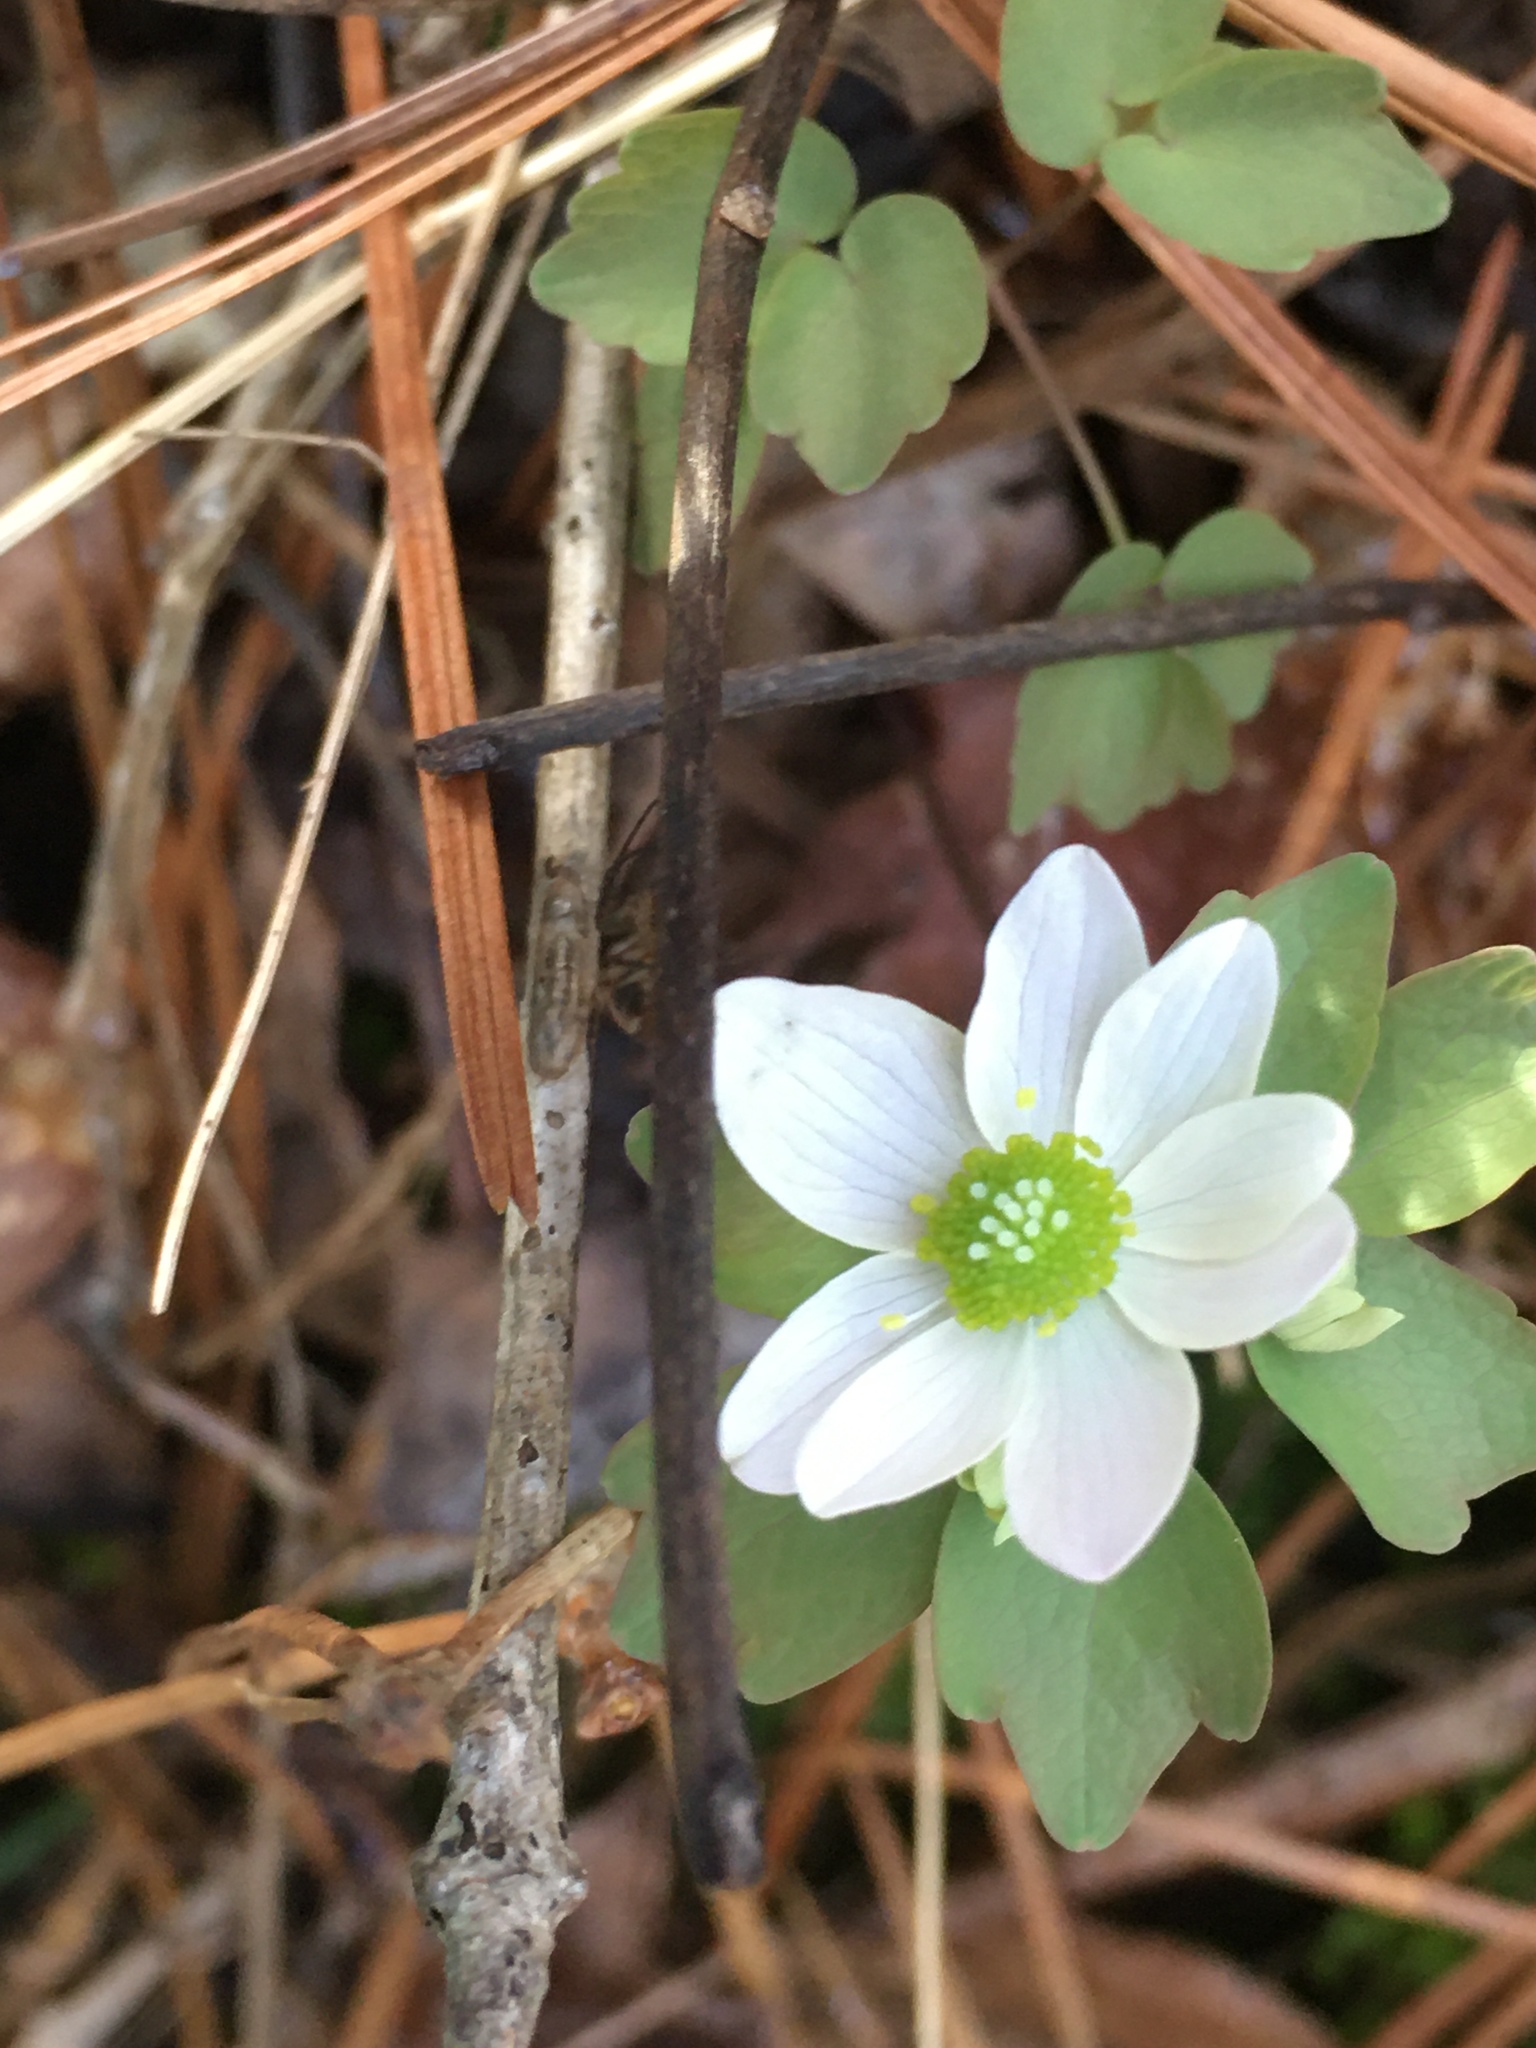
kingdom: Plantae
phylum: Tracheophyta
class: Magnoliopsida
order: Ranunculales
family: Ranunculaceae
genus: Thalictrum
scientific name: Thalictrum thalictroides
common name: Rue-anemone
